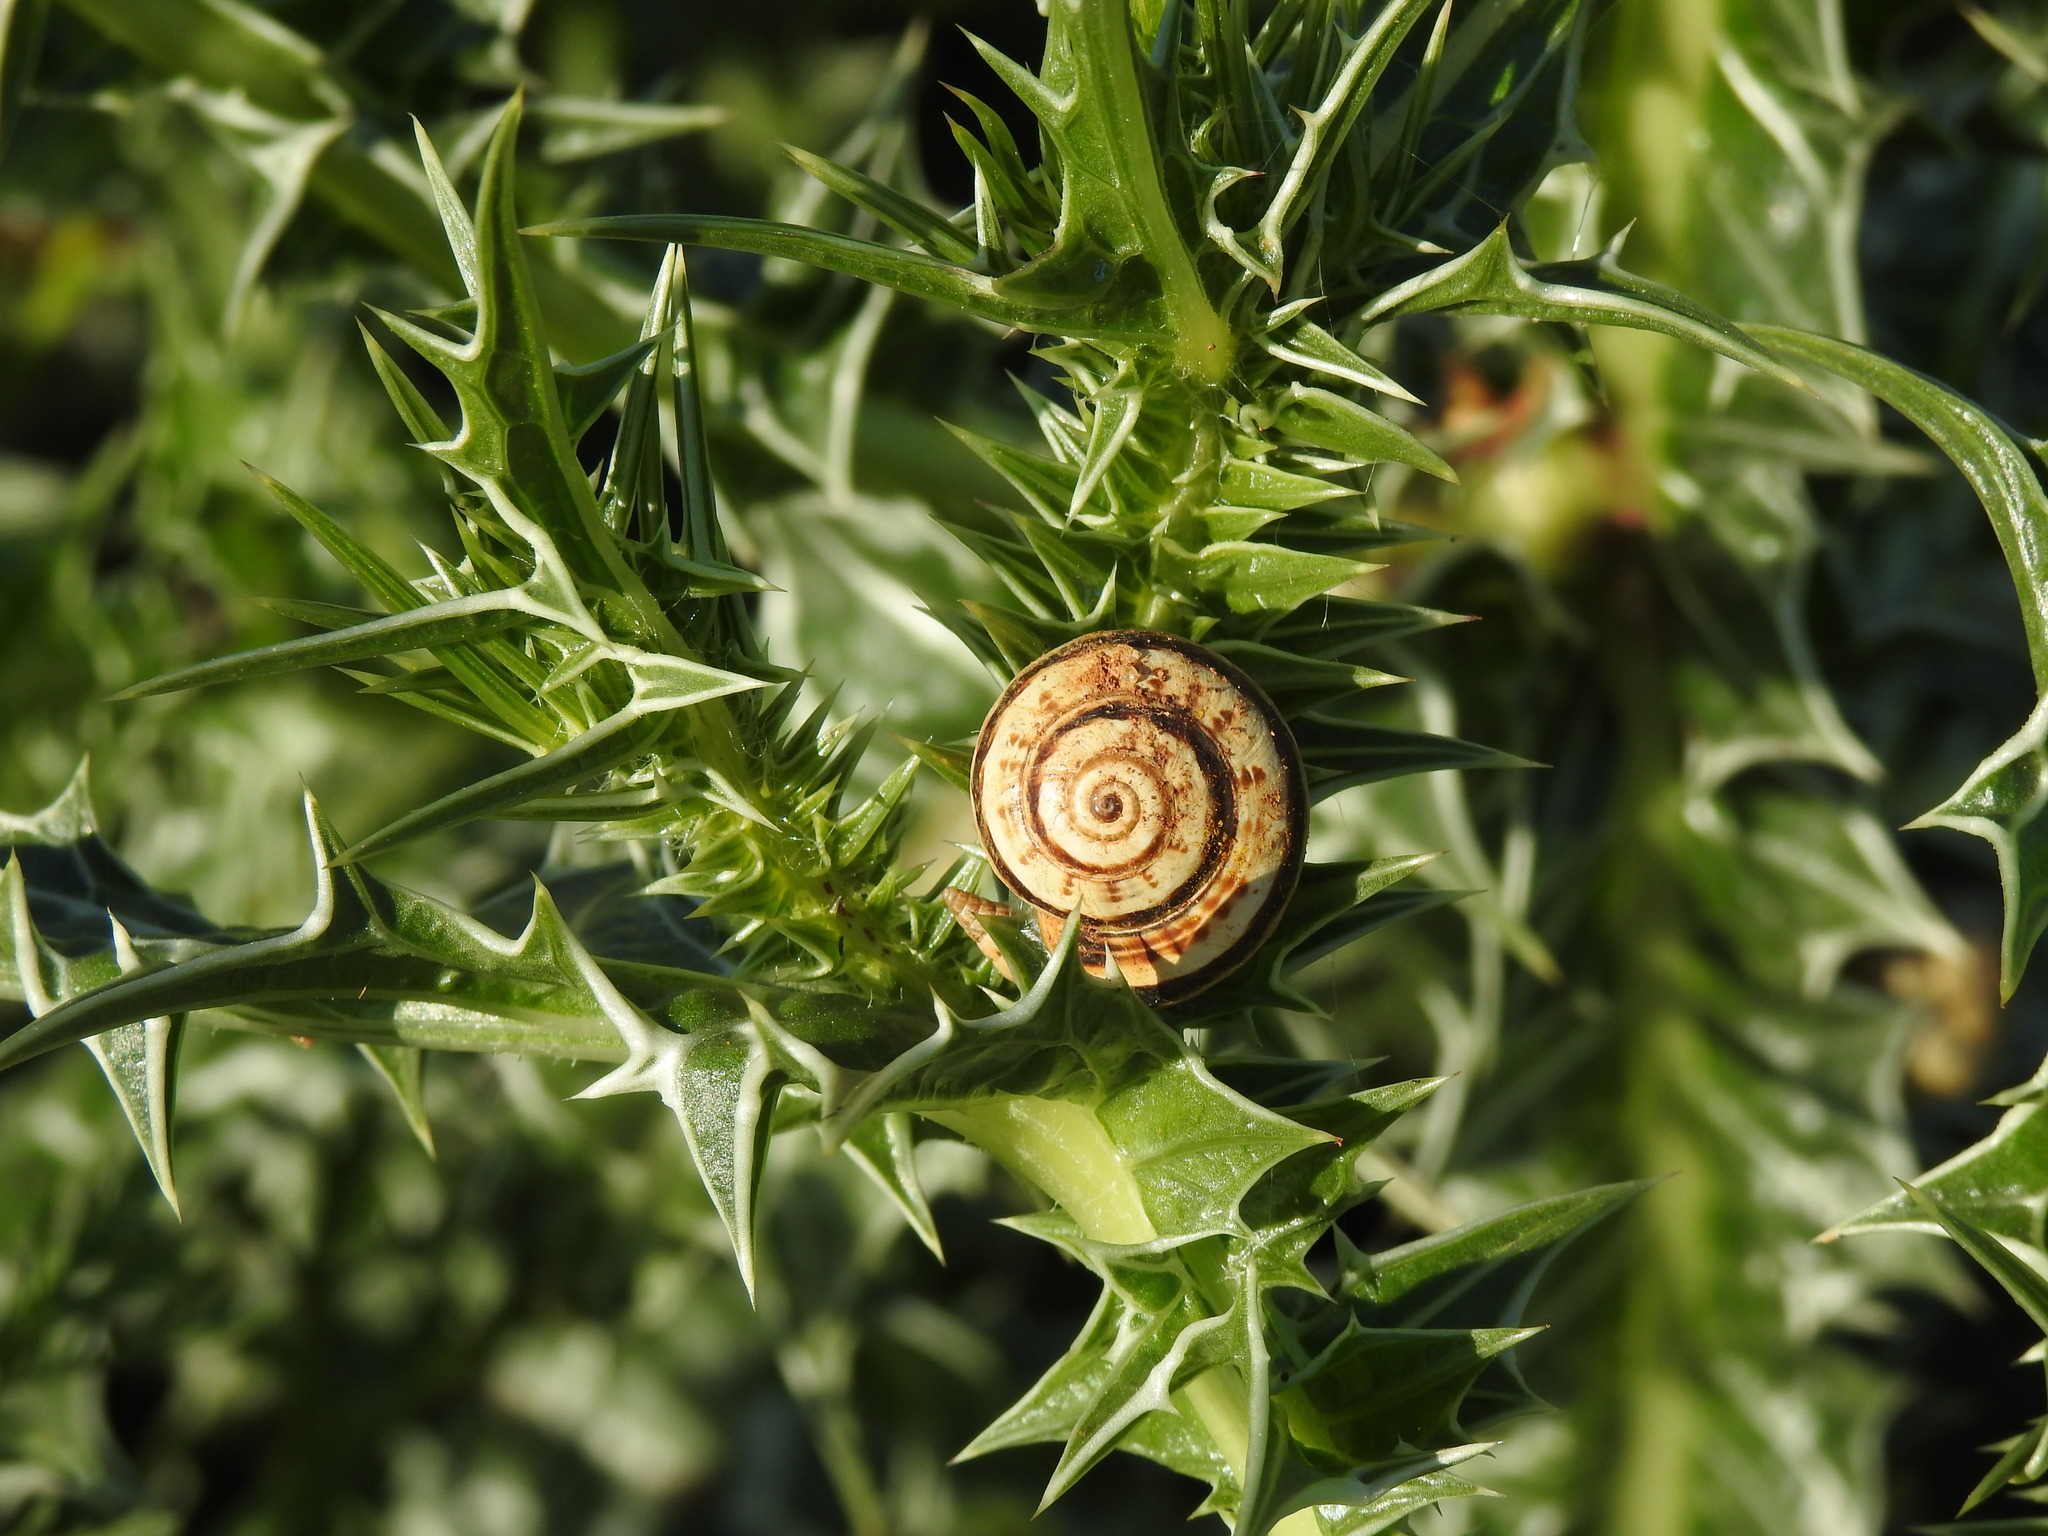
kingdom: Animalia
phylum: Mollusca
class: Gastropoda
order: Stylommatophora
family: Helicidae
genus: Theba
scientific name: Theba pisana
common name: White snail
